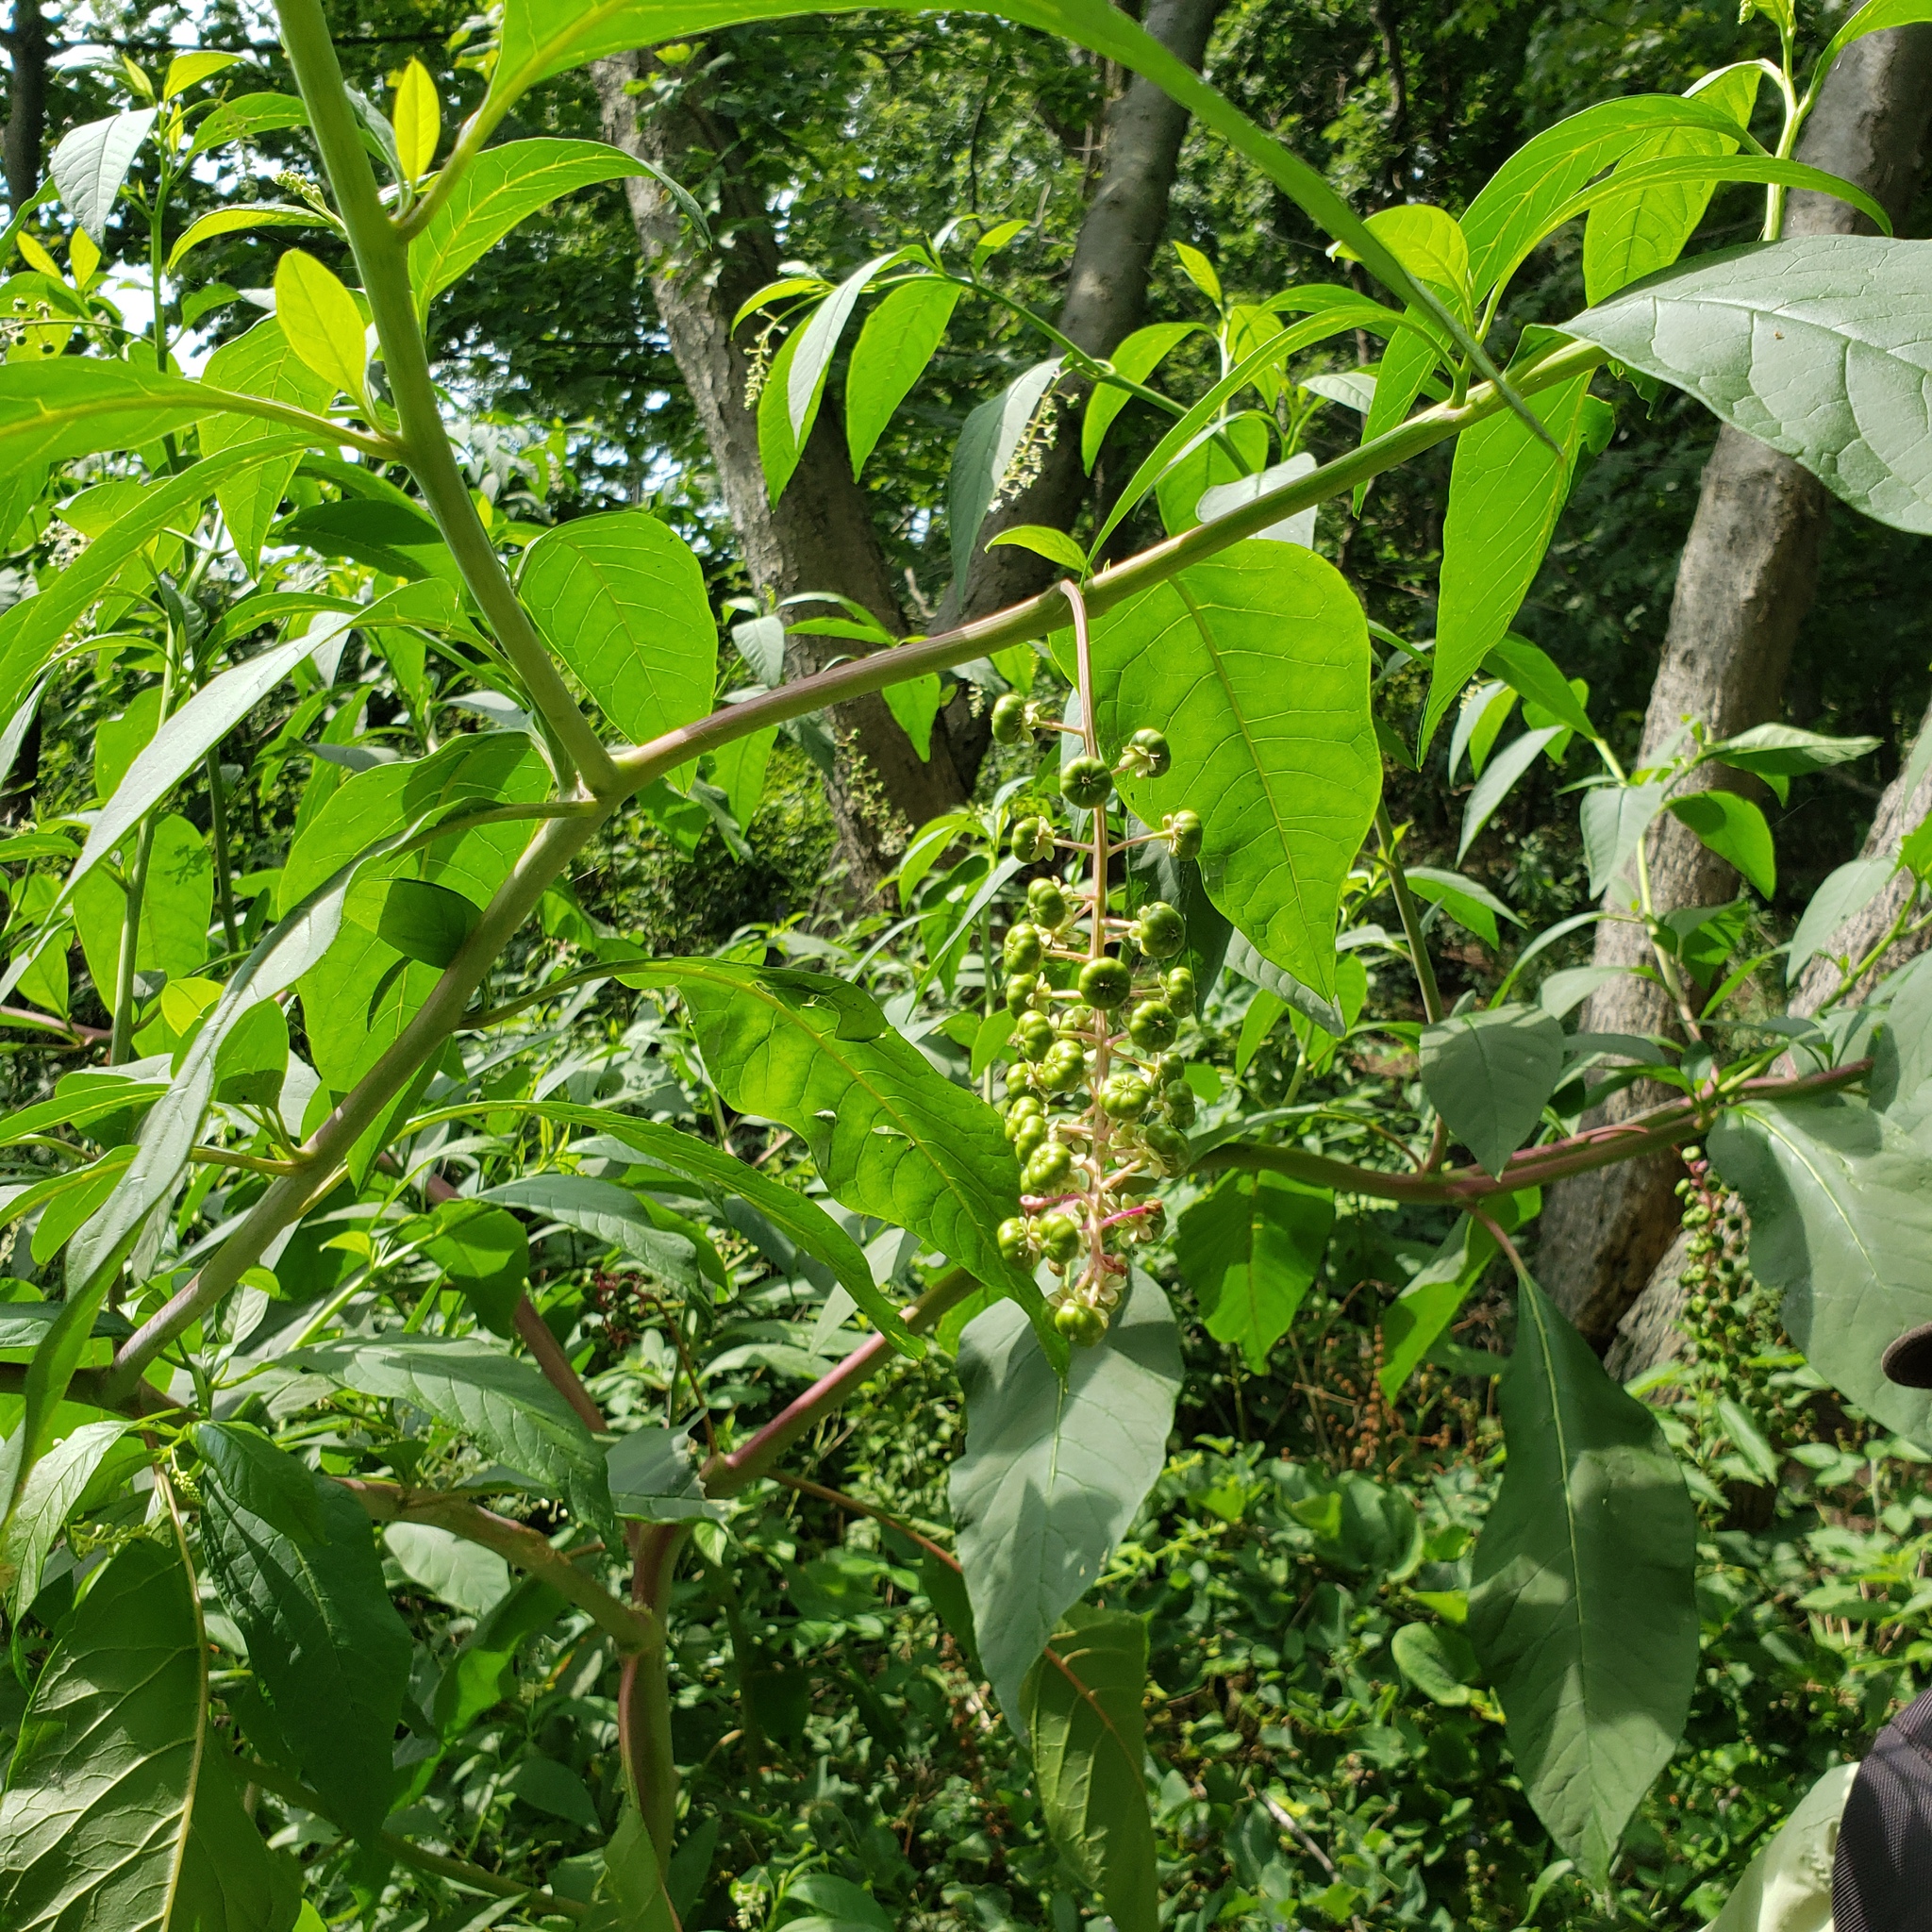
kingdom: Plantae
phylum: Tracheophyta
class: Magnoliopsida
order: Caryophyllales
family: Phytolaccaceae
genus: Phytolacca
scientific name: Phytolacca americana
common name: American pokeweed
